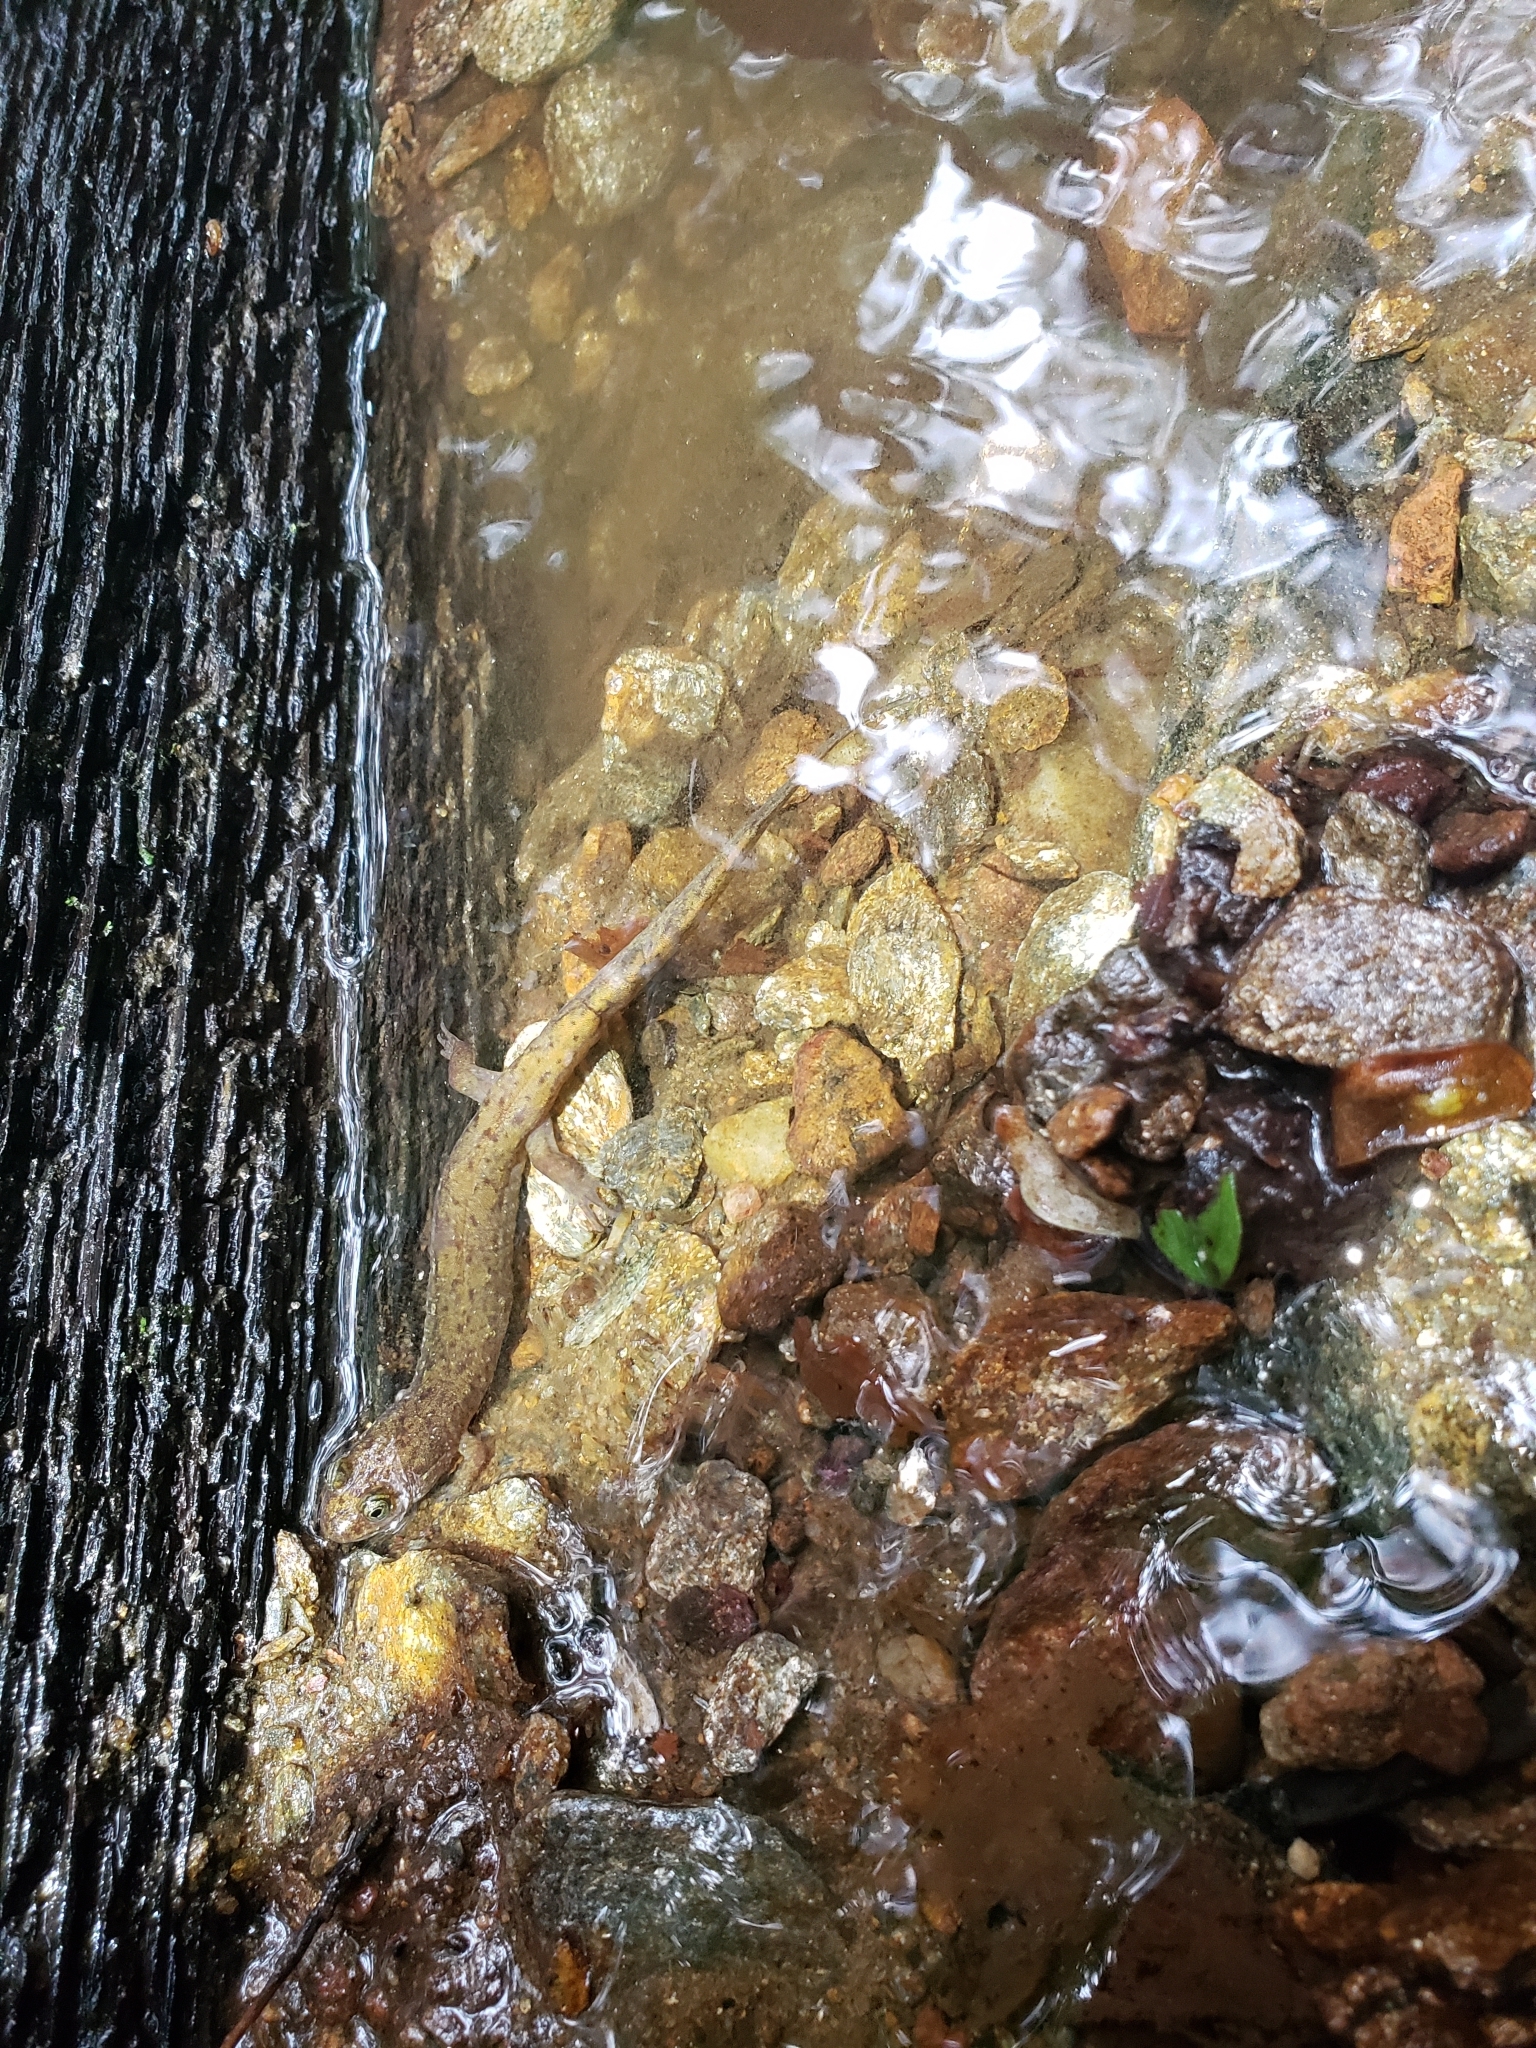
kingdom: Animalia
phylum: Chordata
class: Amphibia
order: Caudata
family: Plethodontidae
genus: Desmognathus
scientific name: Desmognathus monticola
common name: Seal salamander
